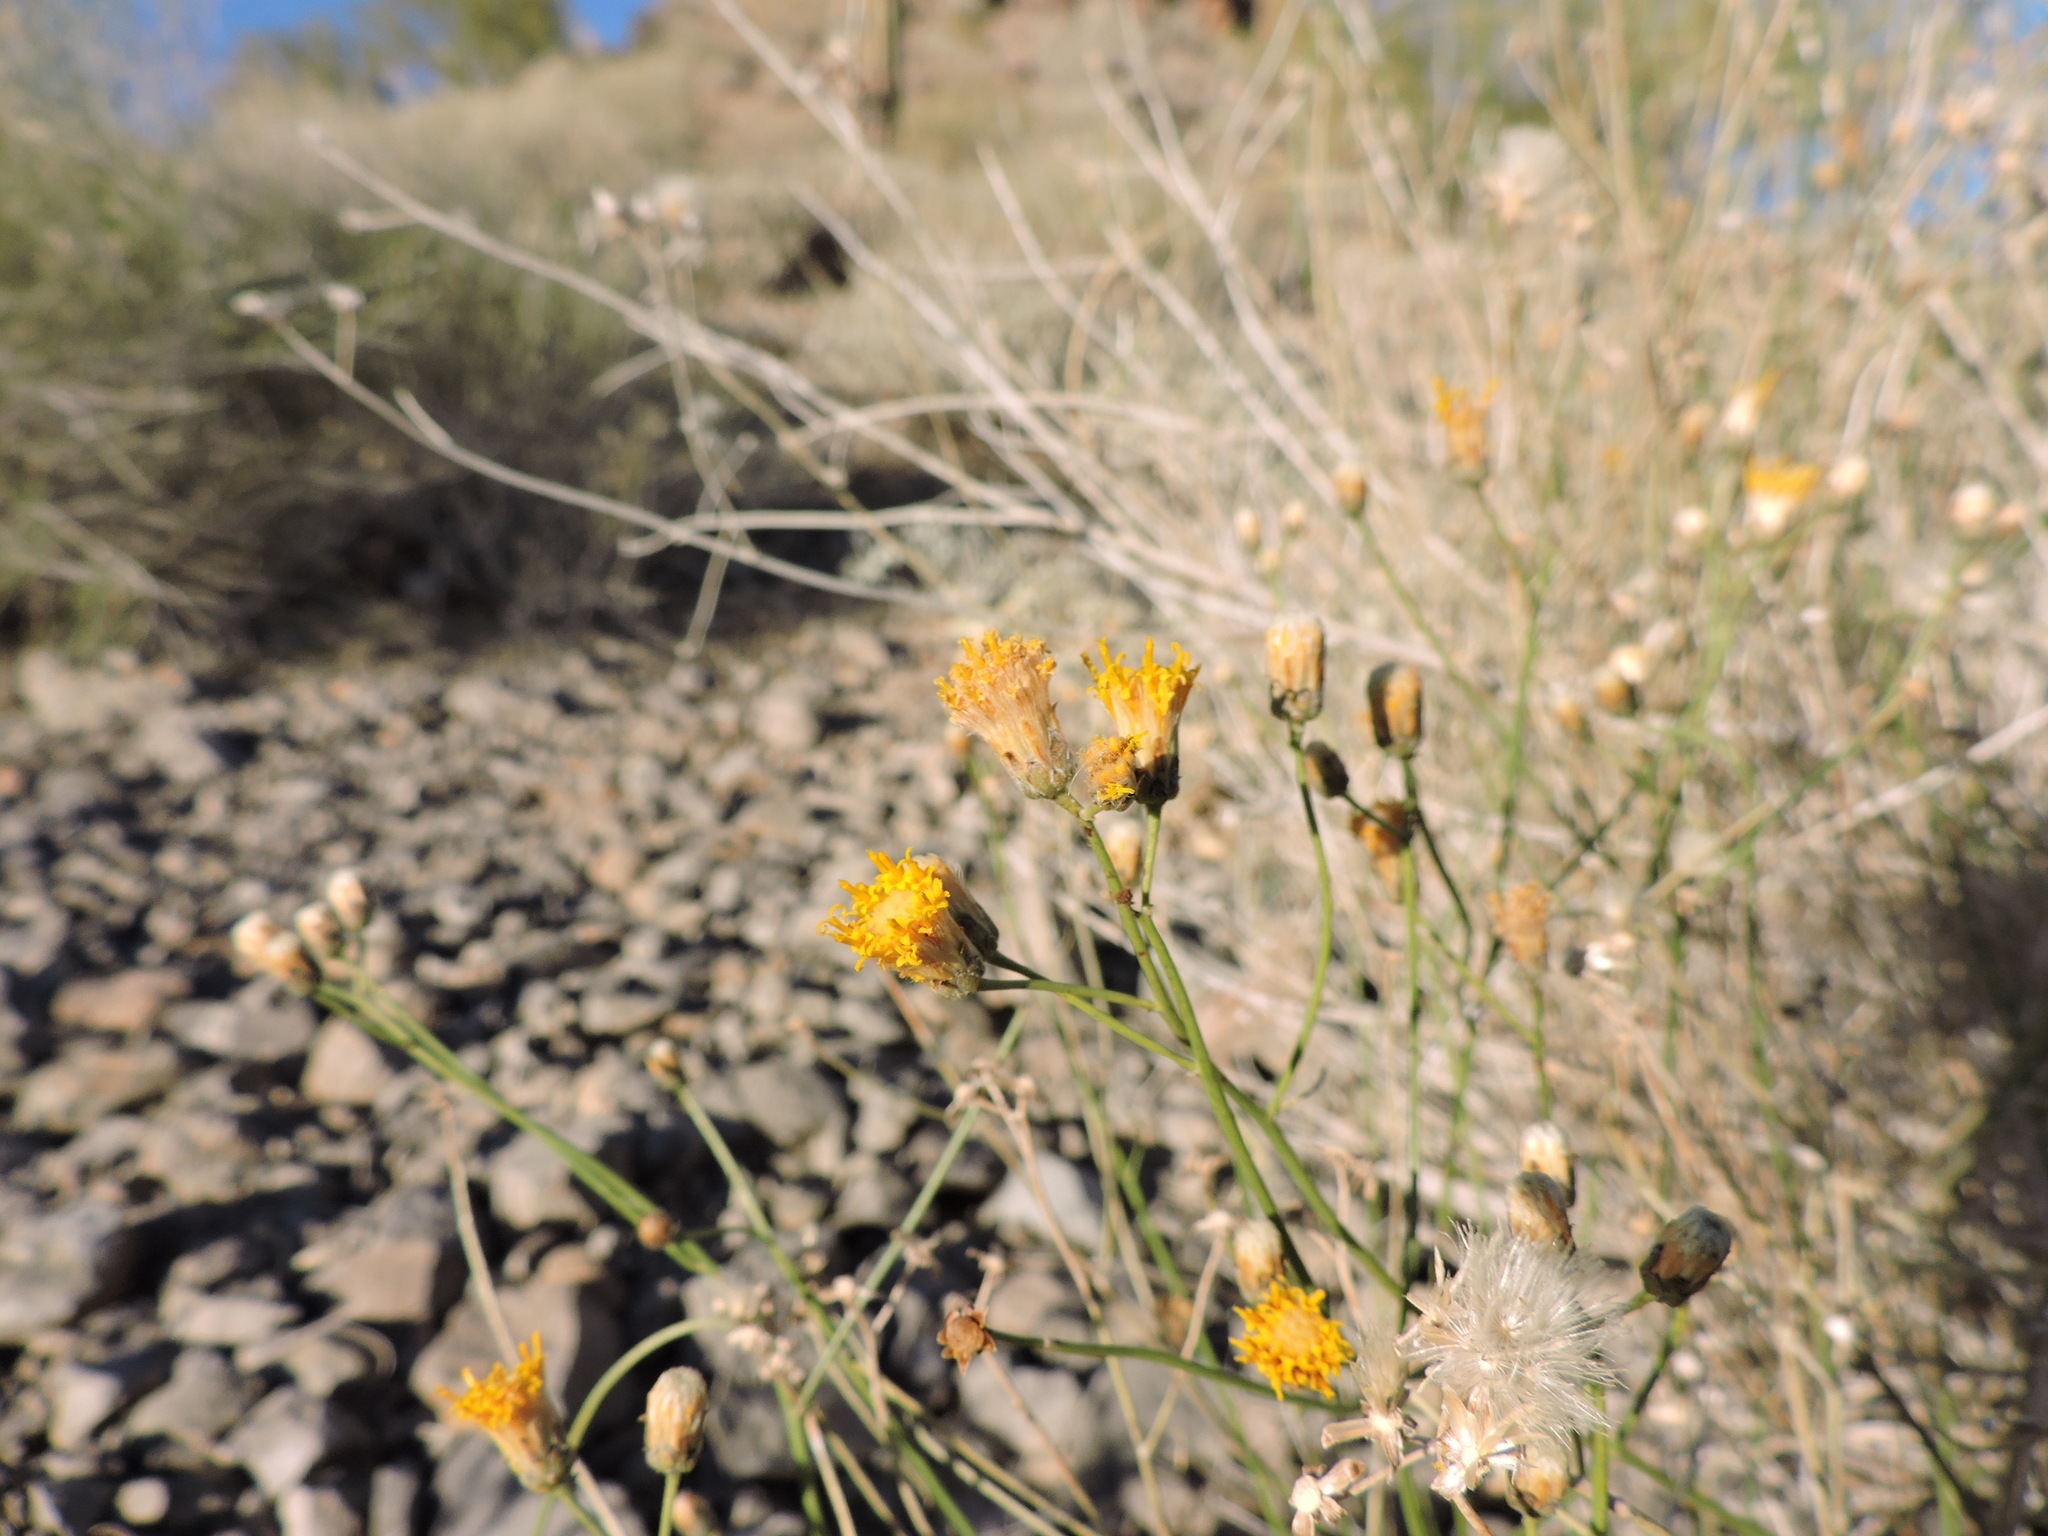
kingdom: Plantae
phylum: Tracheophyta
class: Magnoliopsida
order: Asterales
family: Asteraceae
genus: Bebbia
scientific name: Bebbia juncea
